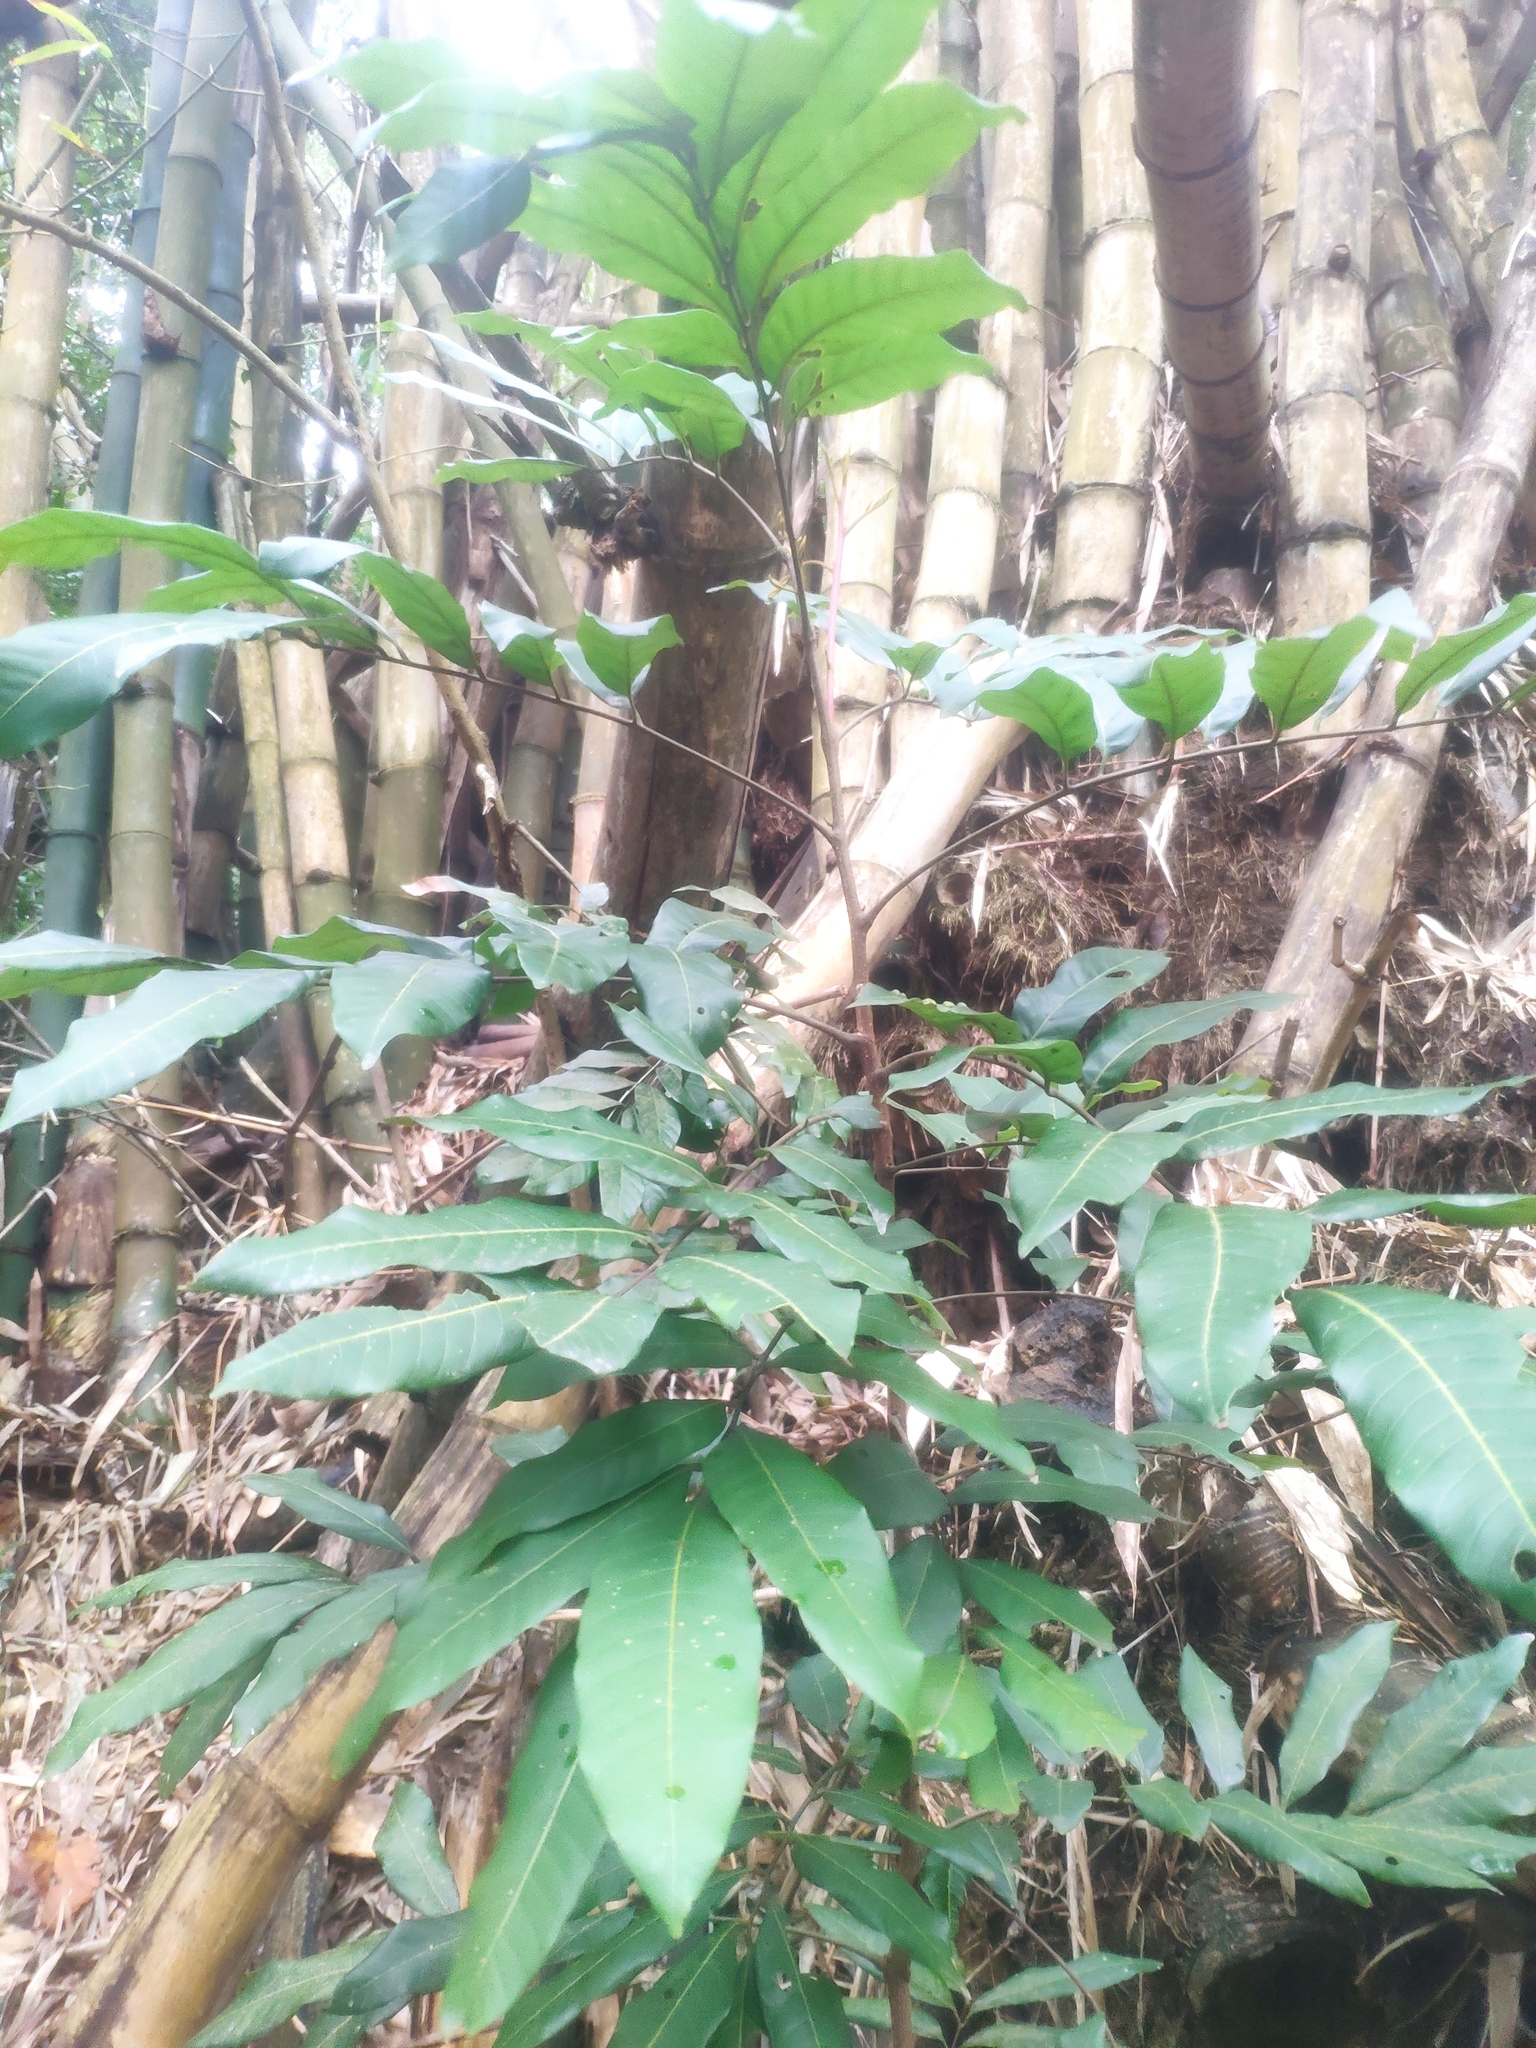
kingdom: Plantae
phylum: Tracheophyta
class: Magnoliopsida
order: Sapindales
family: Sapindaceae
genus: Dimocarpus
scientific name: Dimocarpus longan
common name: Longan
